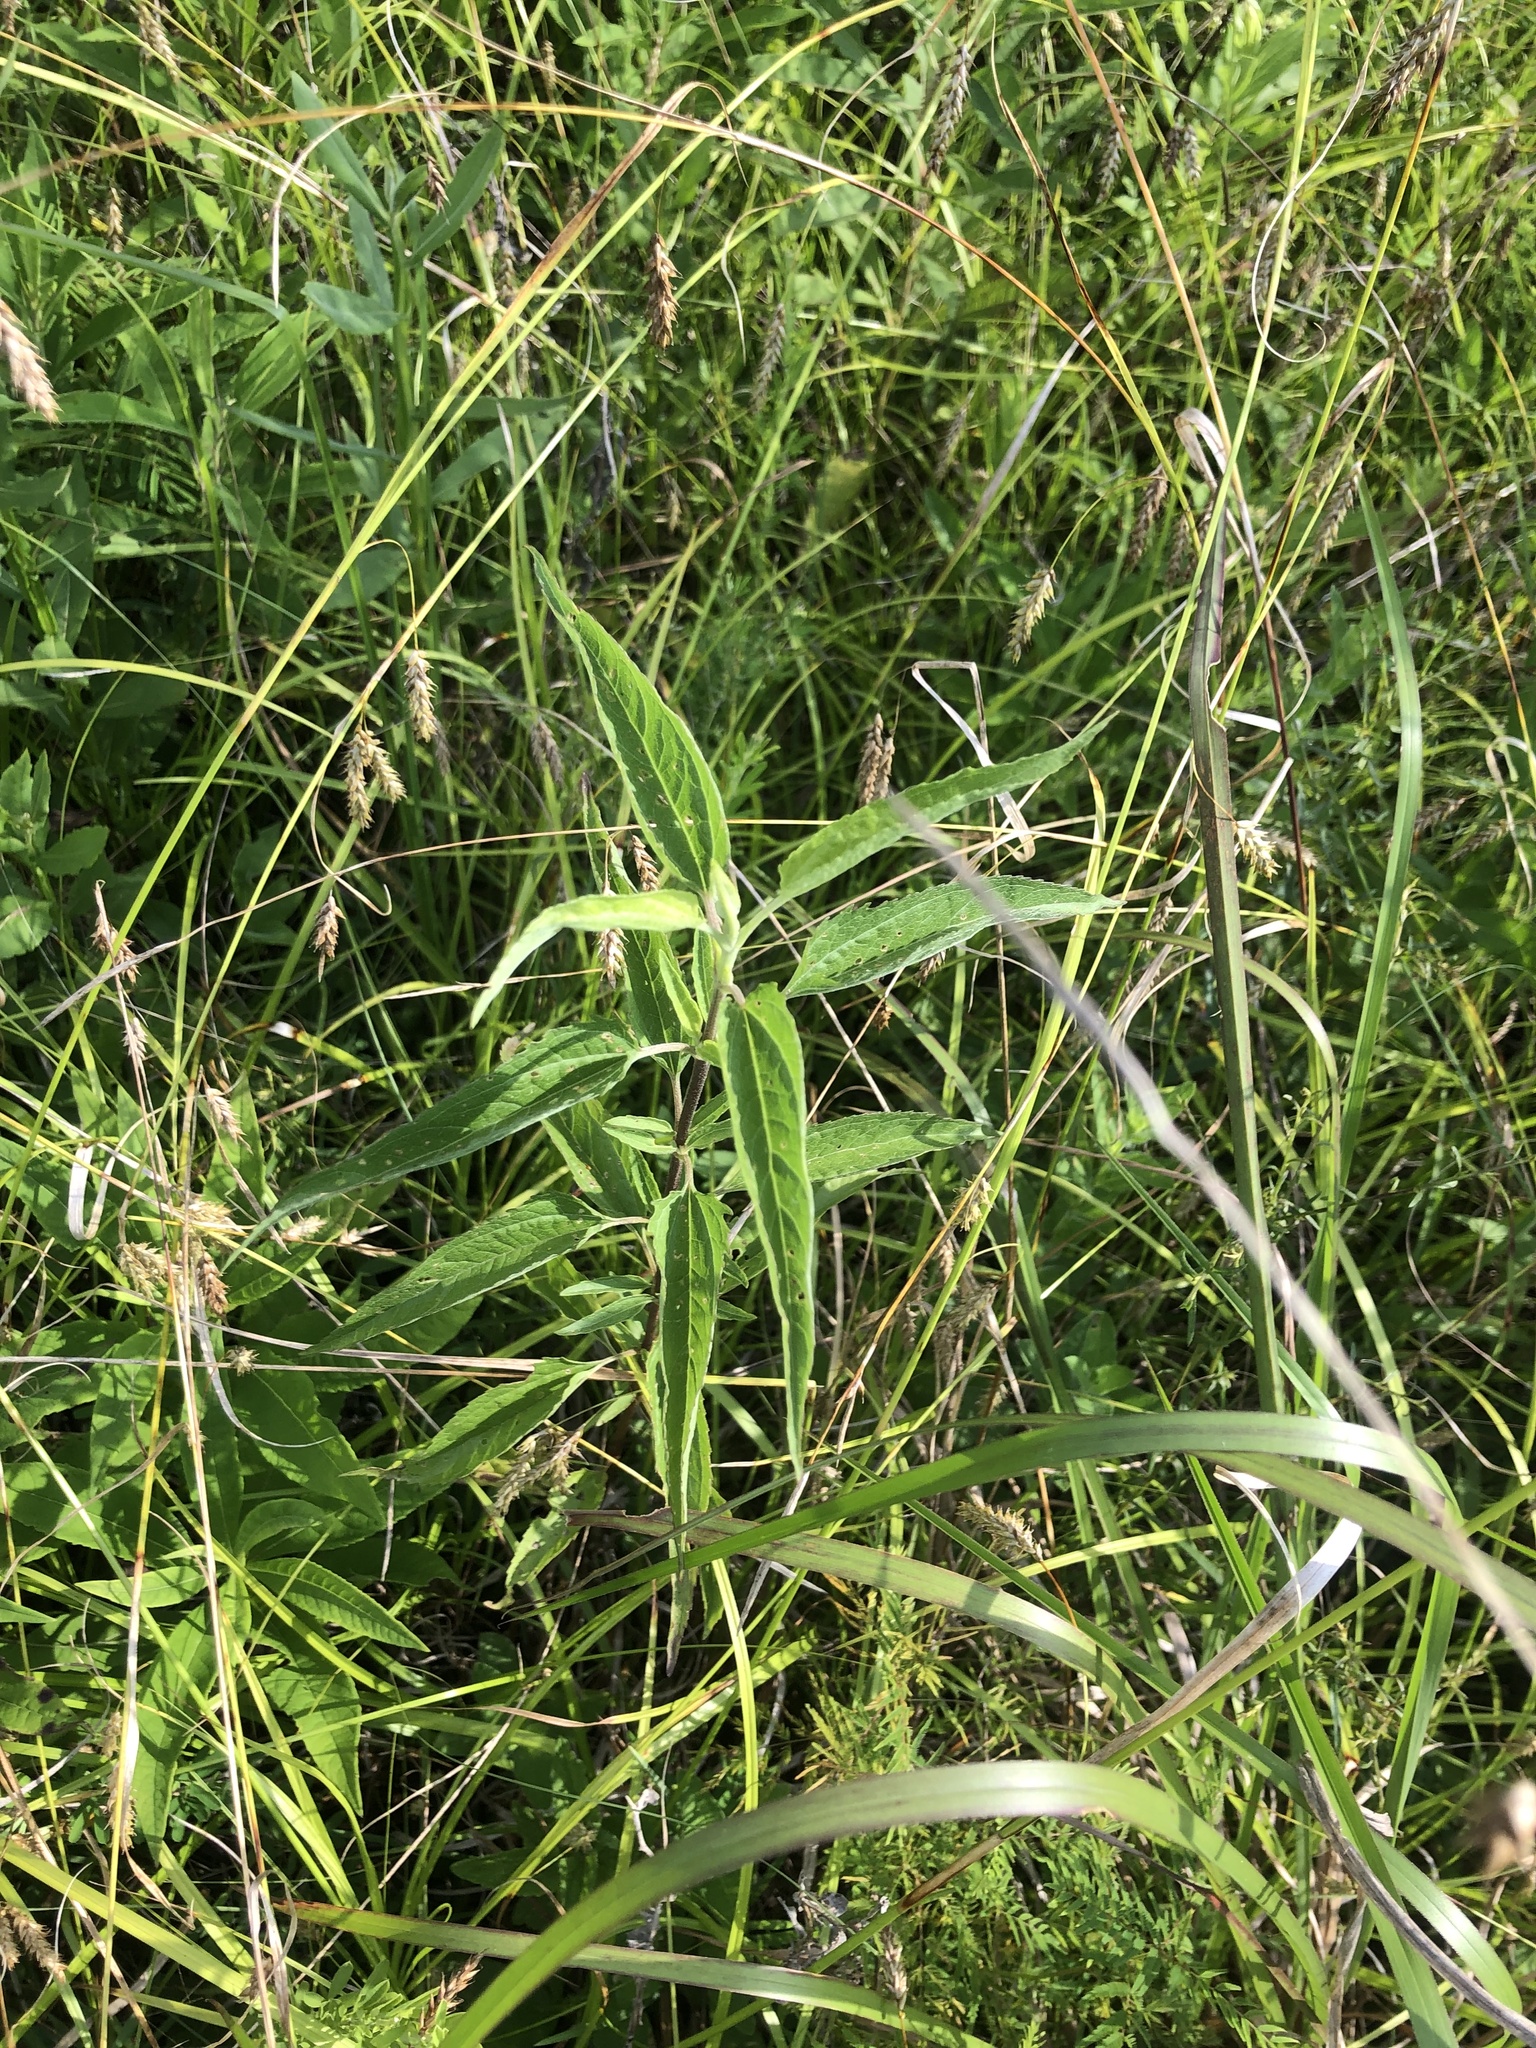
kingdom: Plantae
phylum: Tracheophyta
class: Magnoliopsida
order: Asterales
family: Asteraceae
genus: Eupatorium
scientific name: Eupatorium serotinum
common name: Late boneset
